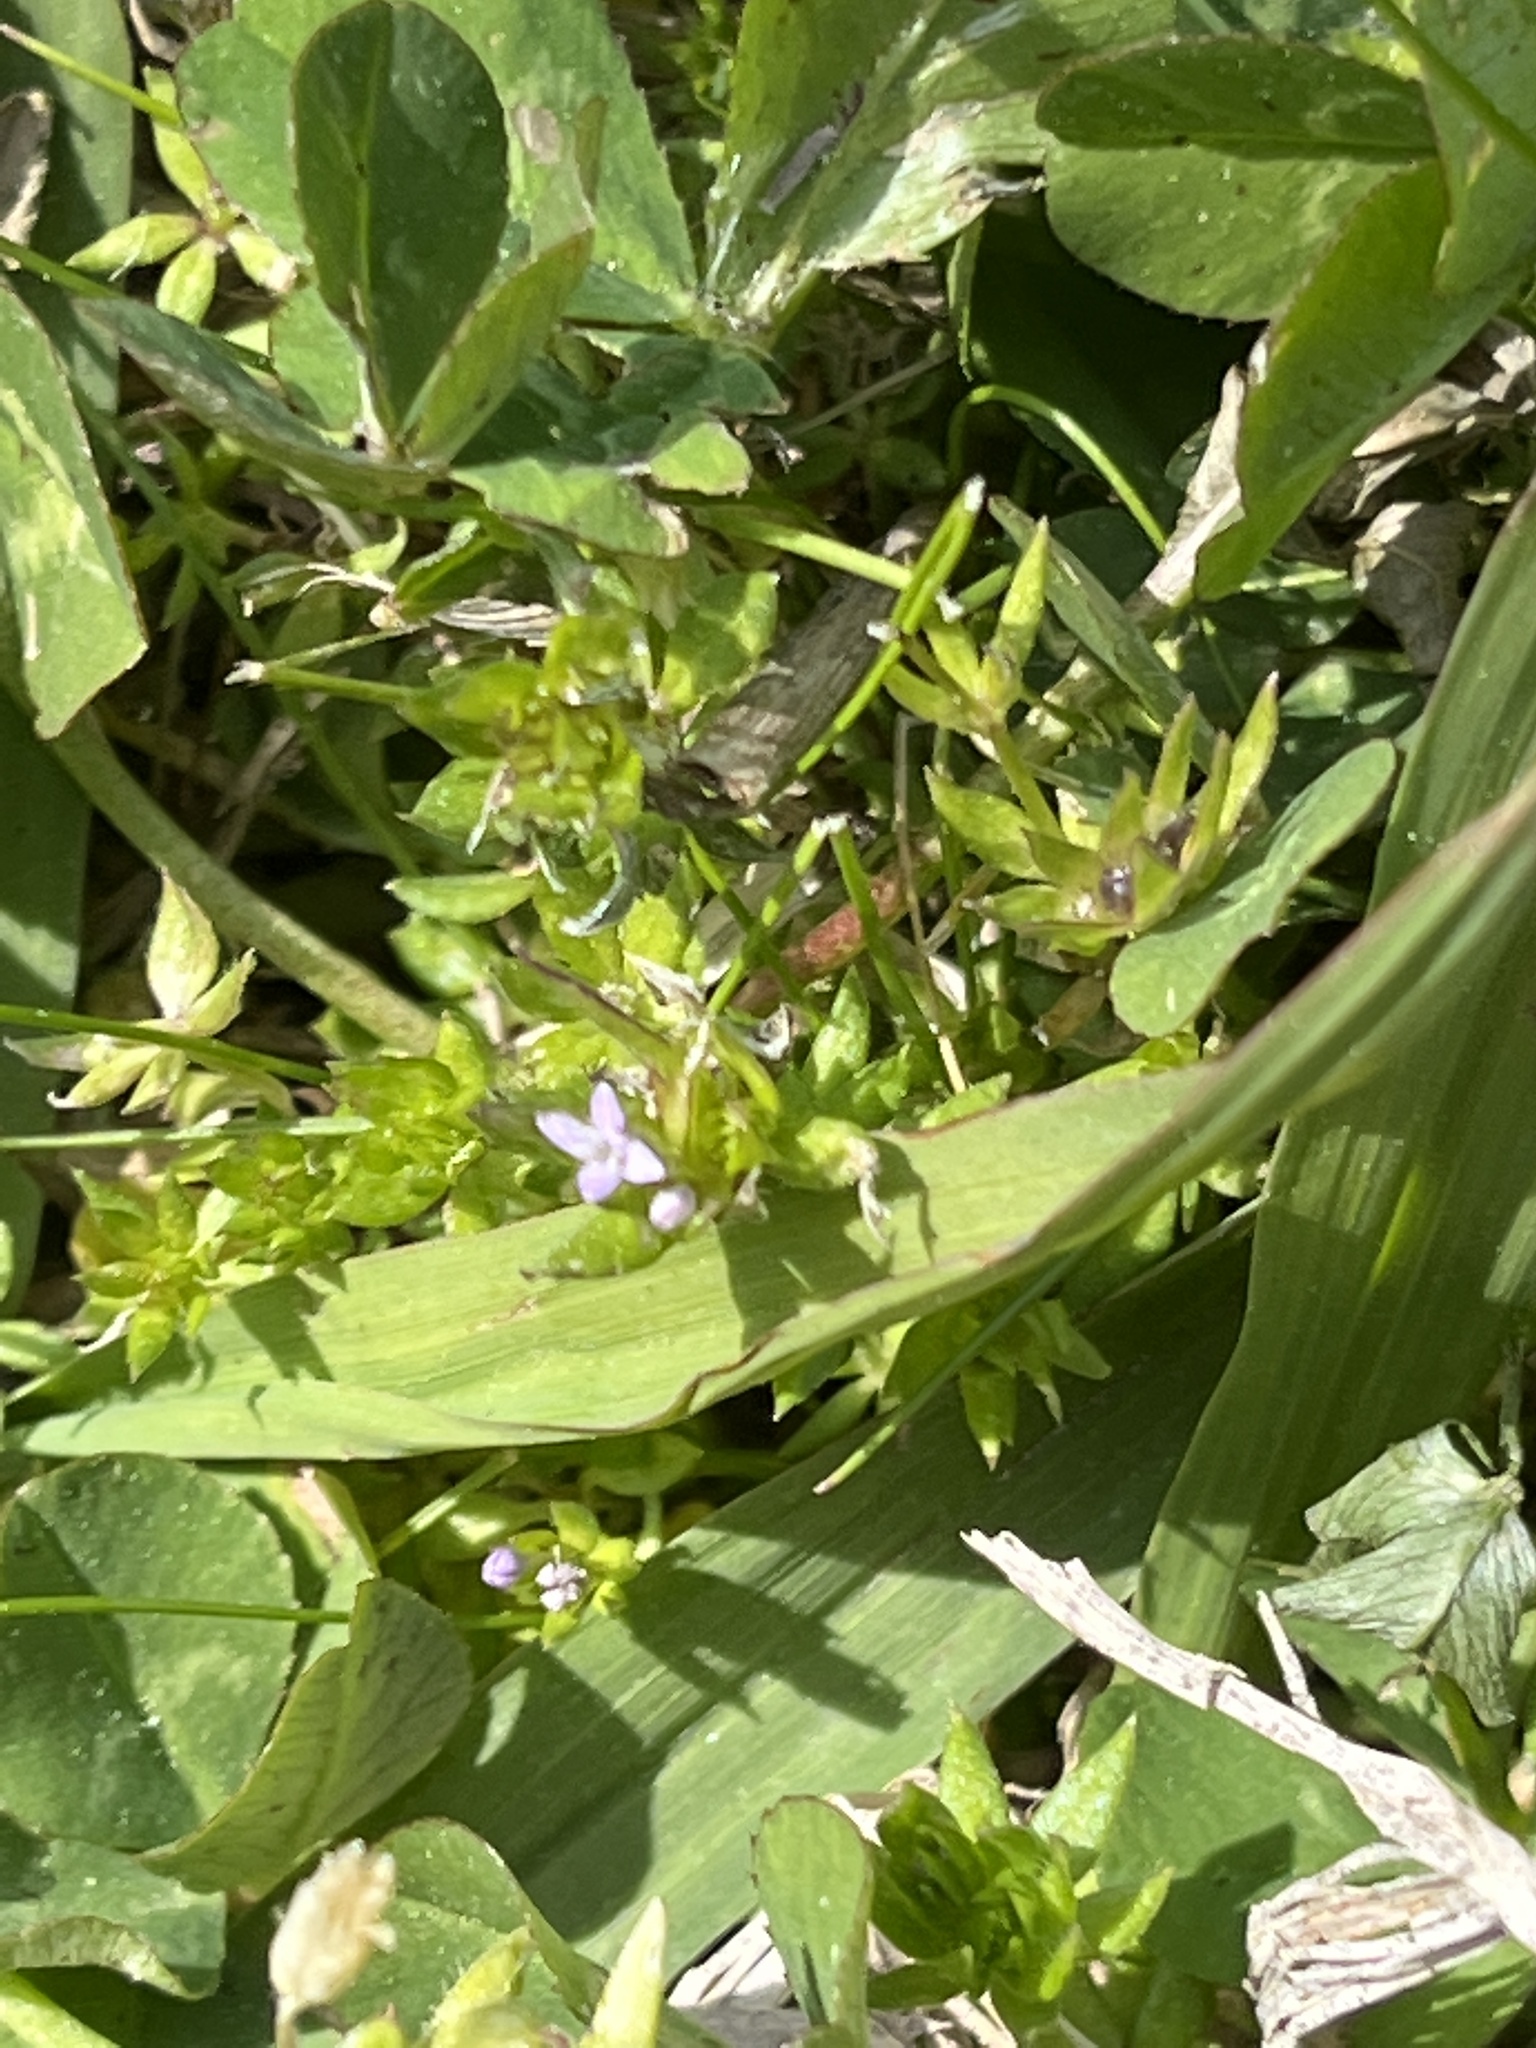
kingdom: Plantae
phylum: Tracheophyta
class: Magnoliopsida
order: Gentianales
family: Rubiaceae
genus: Sherardia
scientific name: Sherardia arvensis
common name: Field madder
